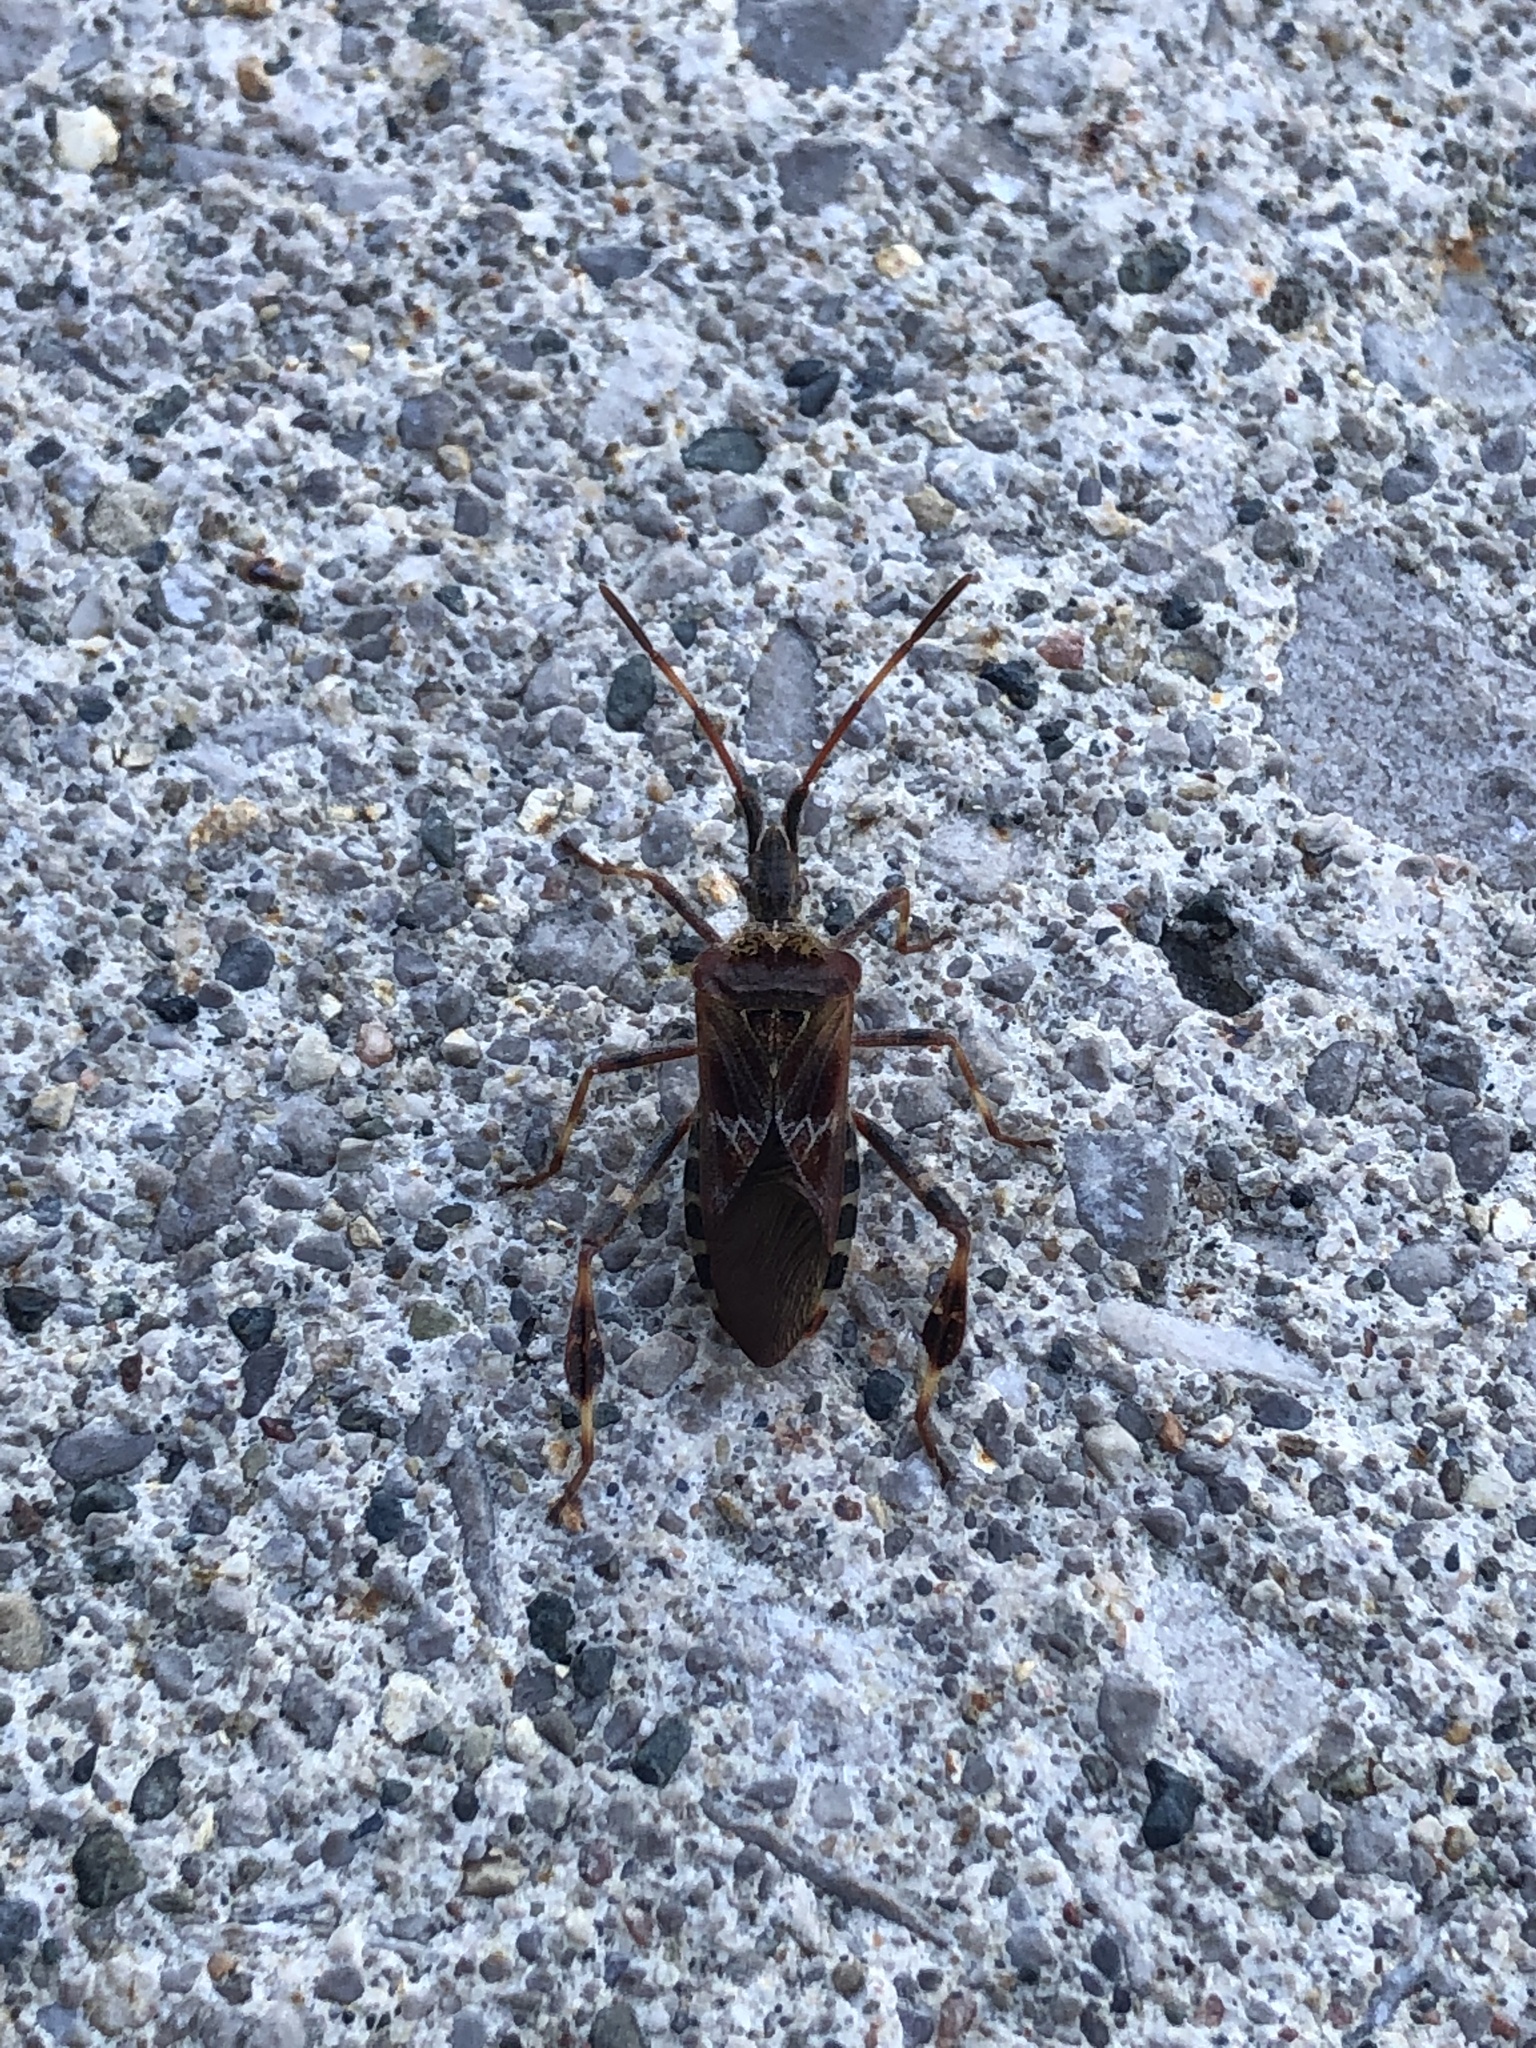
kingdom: Animalia
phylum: Arthropoda
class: Insecta
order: Hemiptera
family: Coreidae
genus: Leptoglossus
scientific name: Leptoglossus occidentalis
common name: Western conifer-seed bug
